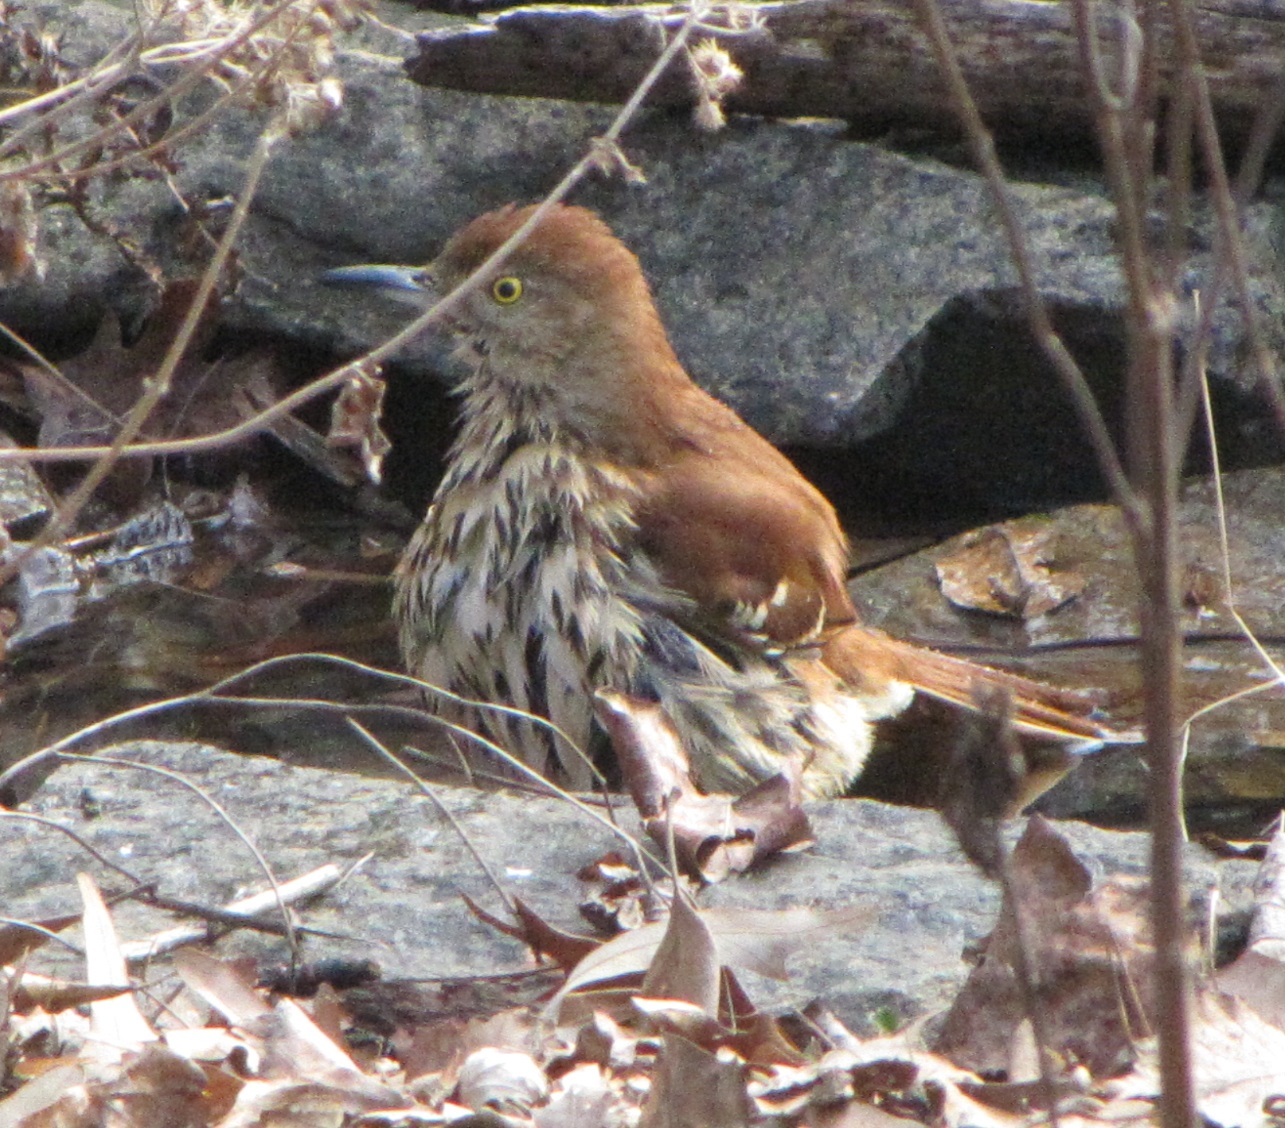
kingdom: Animalia
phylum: Chordata
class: Aves
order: Passeriformes
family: Mimidae
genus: Toxostoma
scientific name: Toxostoma rufum
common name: Brown thrasher
